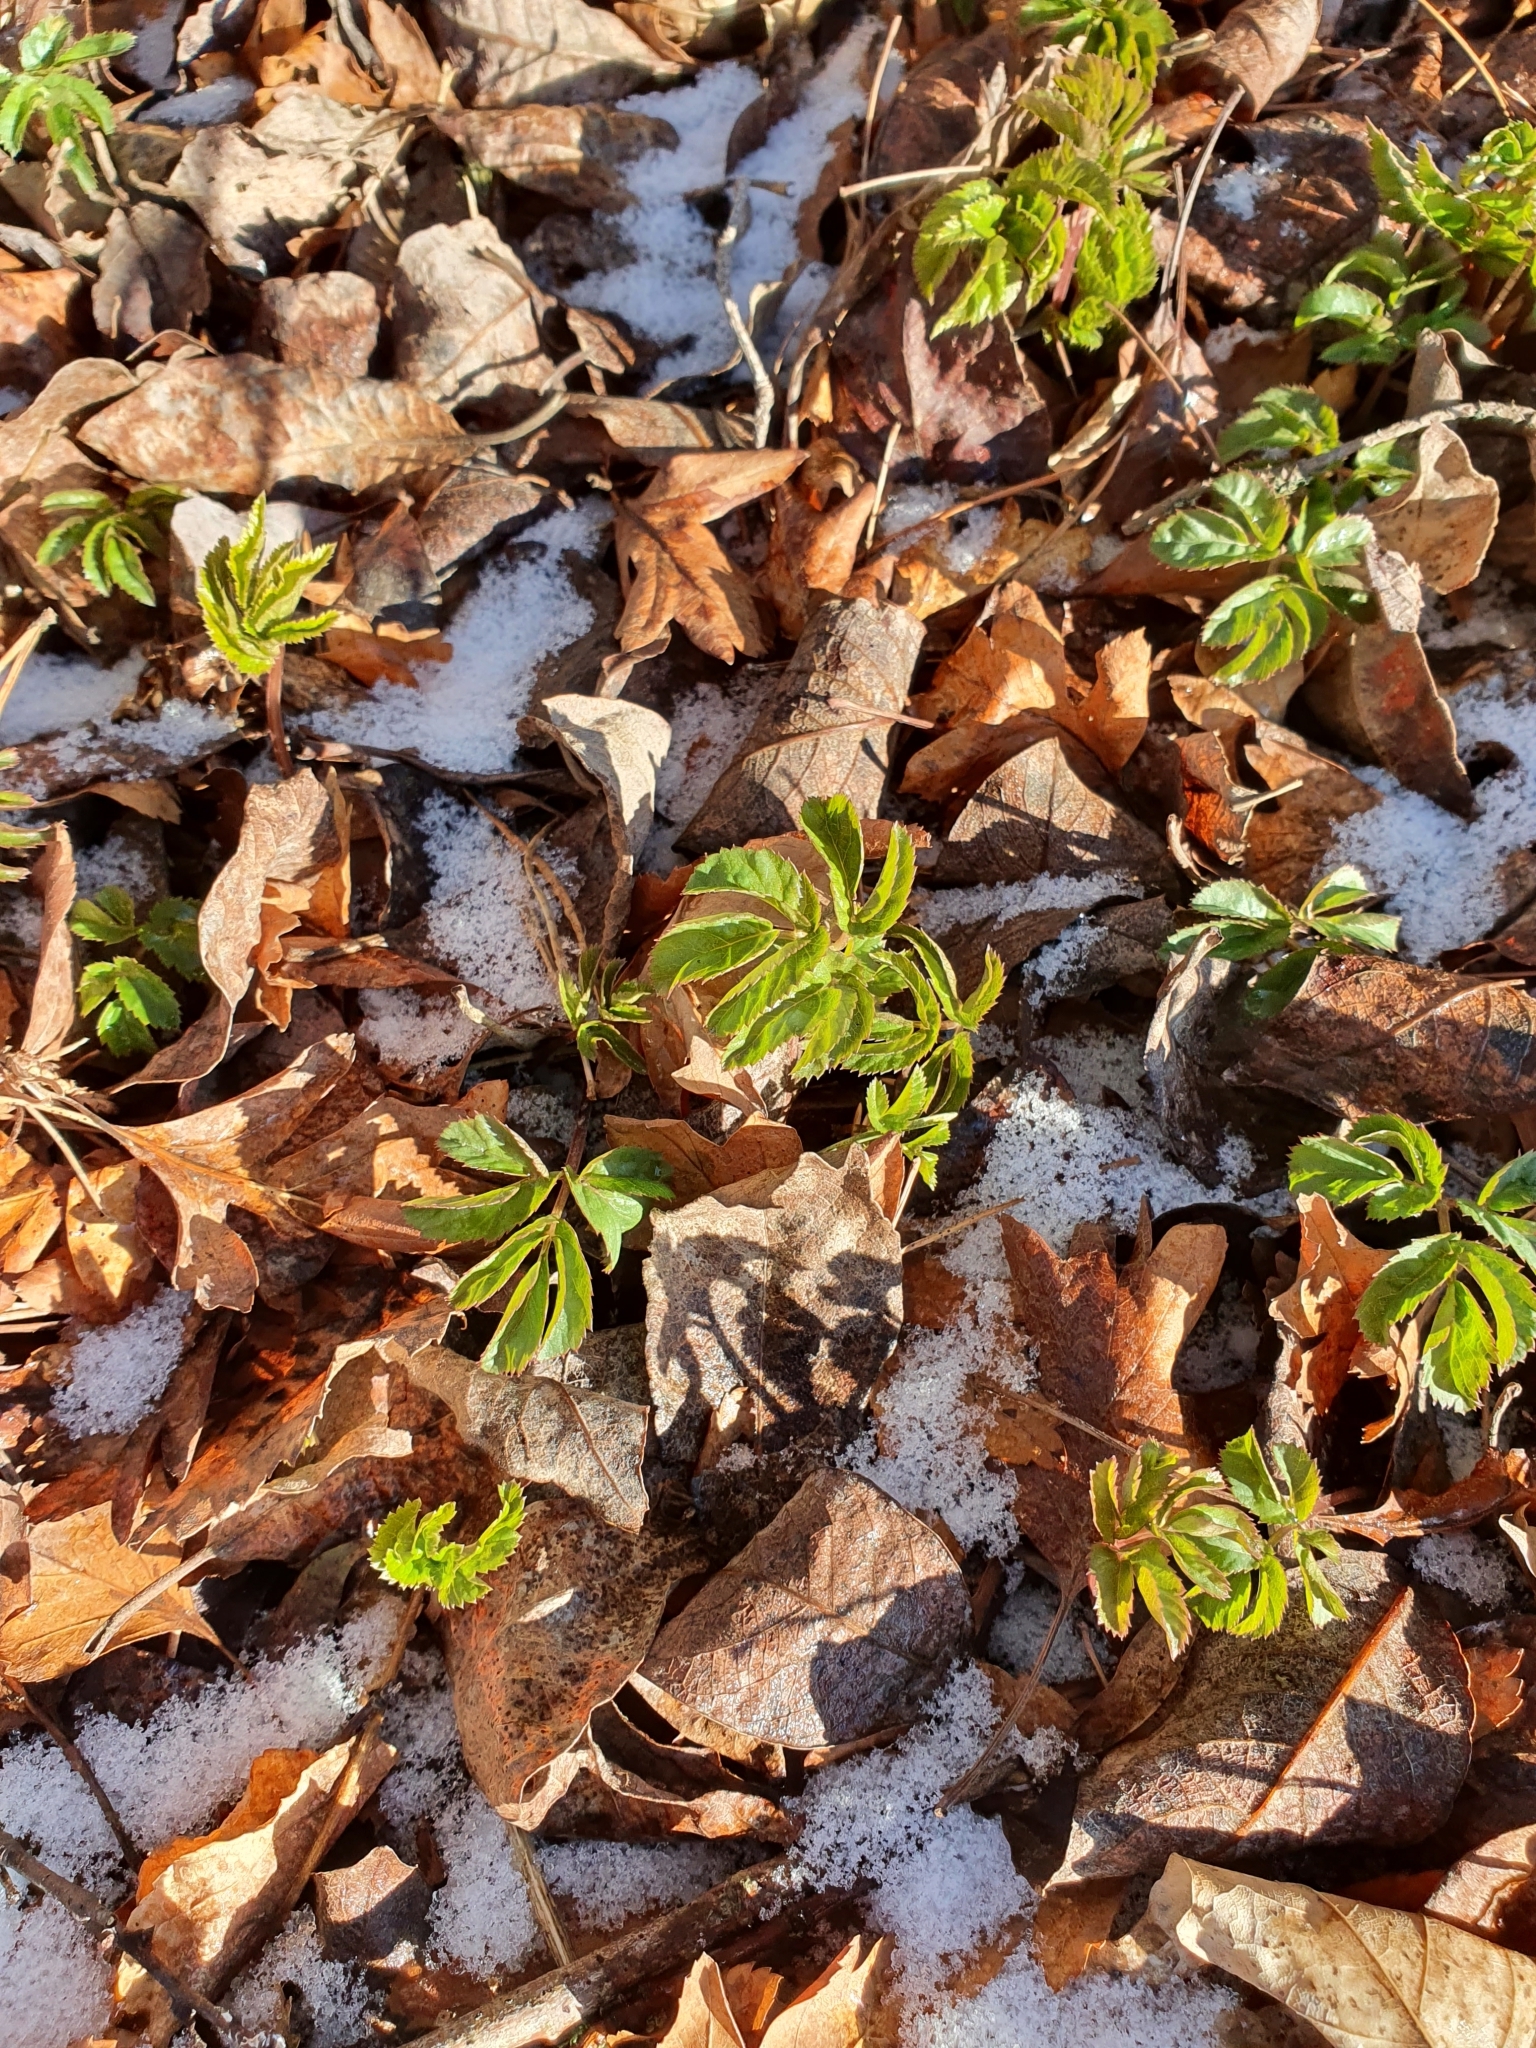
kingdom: Plantae
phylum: Tracheophyta
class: Magnoliopsida
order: Apiales
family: Apiaceae
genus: Aegopodium
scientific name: Aegopodium podagraria
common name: Ground-elder
